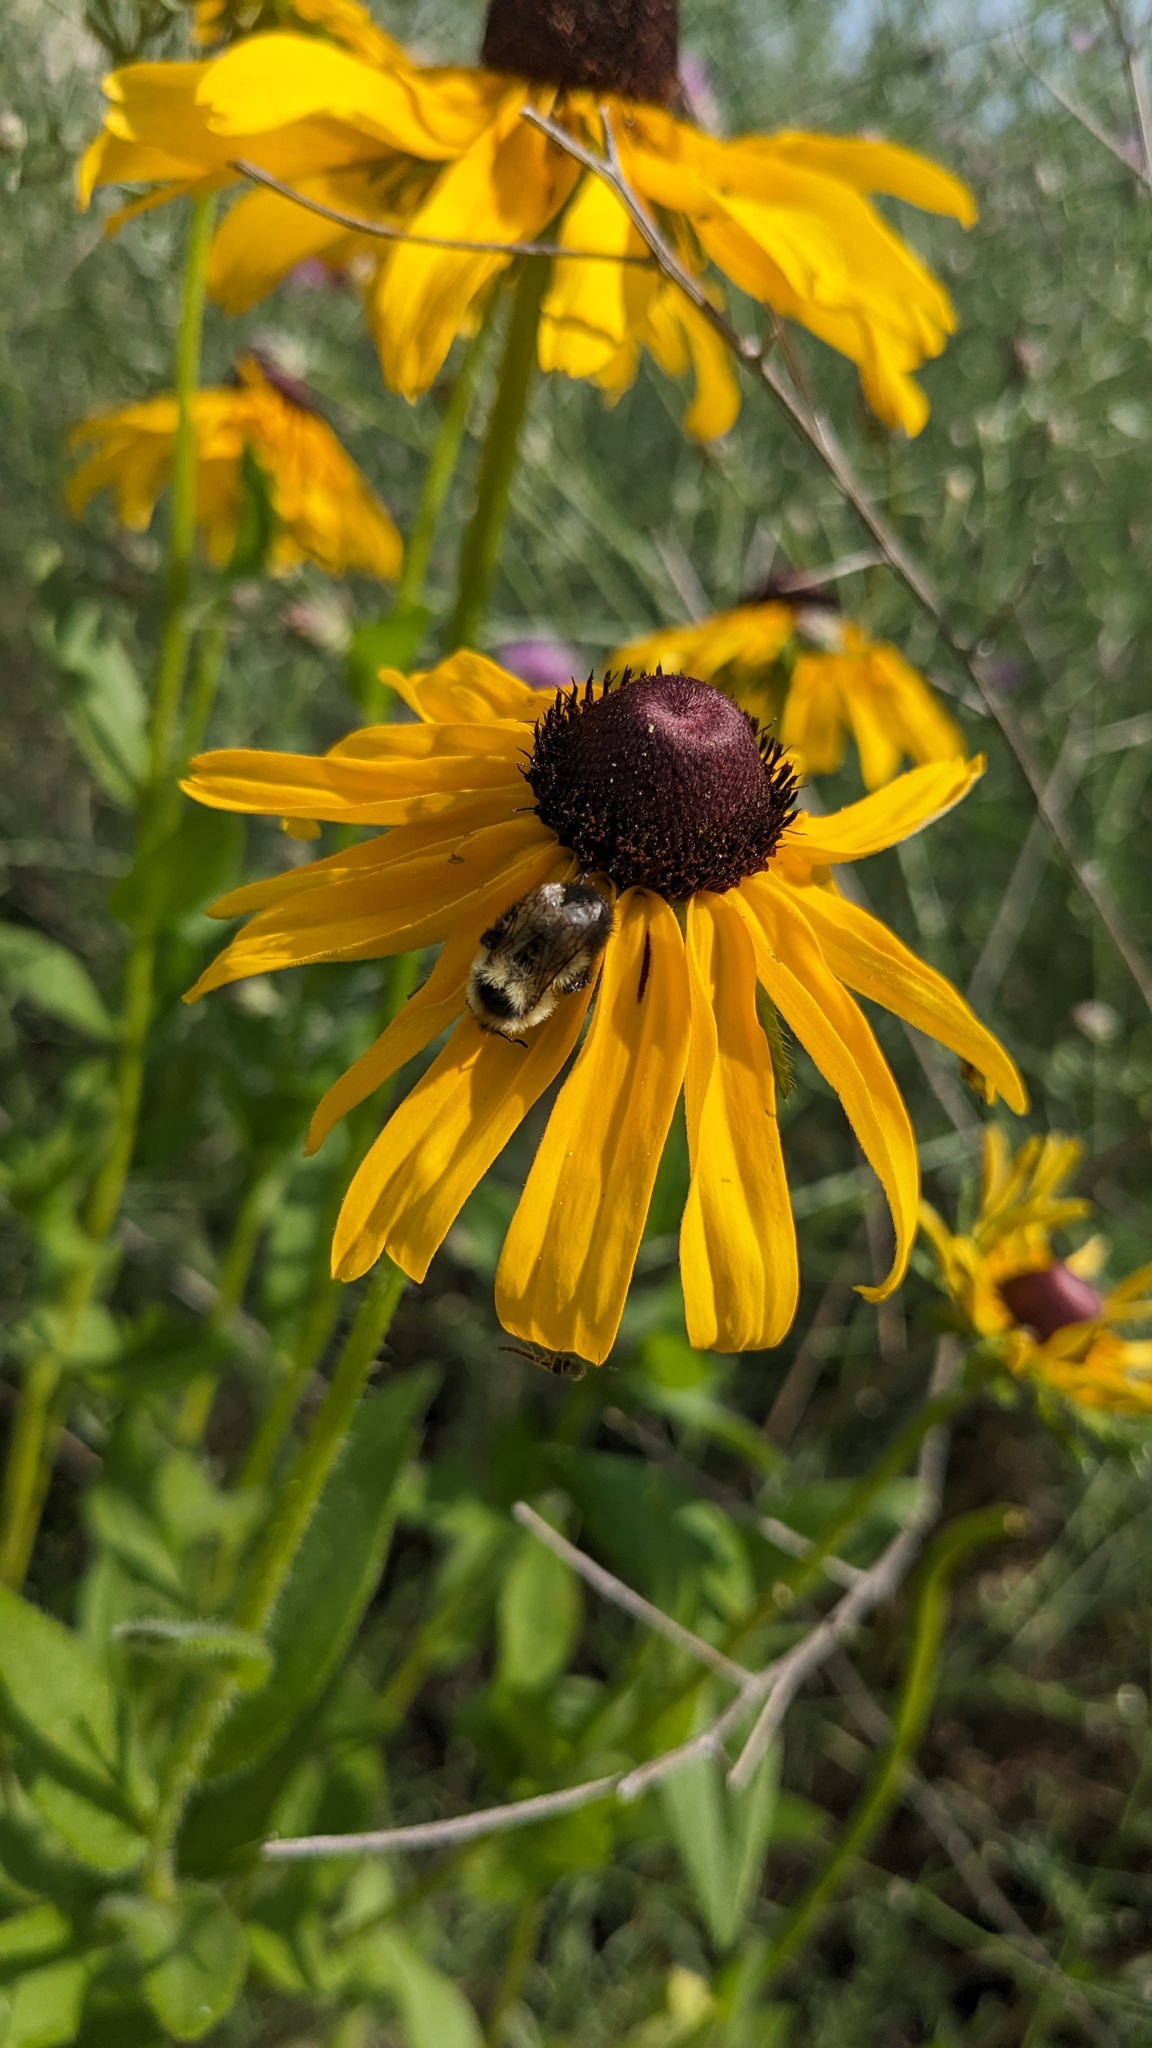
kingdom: Animalia
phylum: Arthropoda
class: Insecta
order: Hymenoptera
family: Apidae
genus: Bombus
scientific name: Bombus rufocinctus
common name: Red-belted bumble bee
